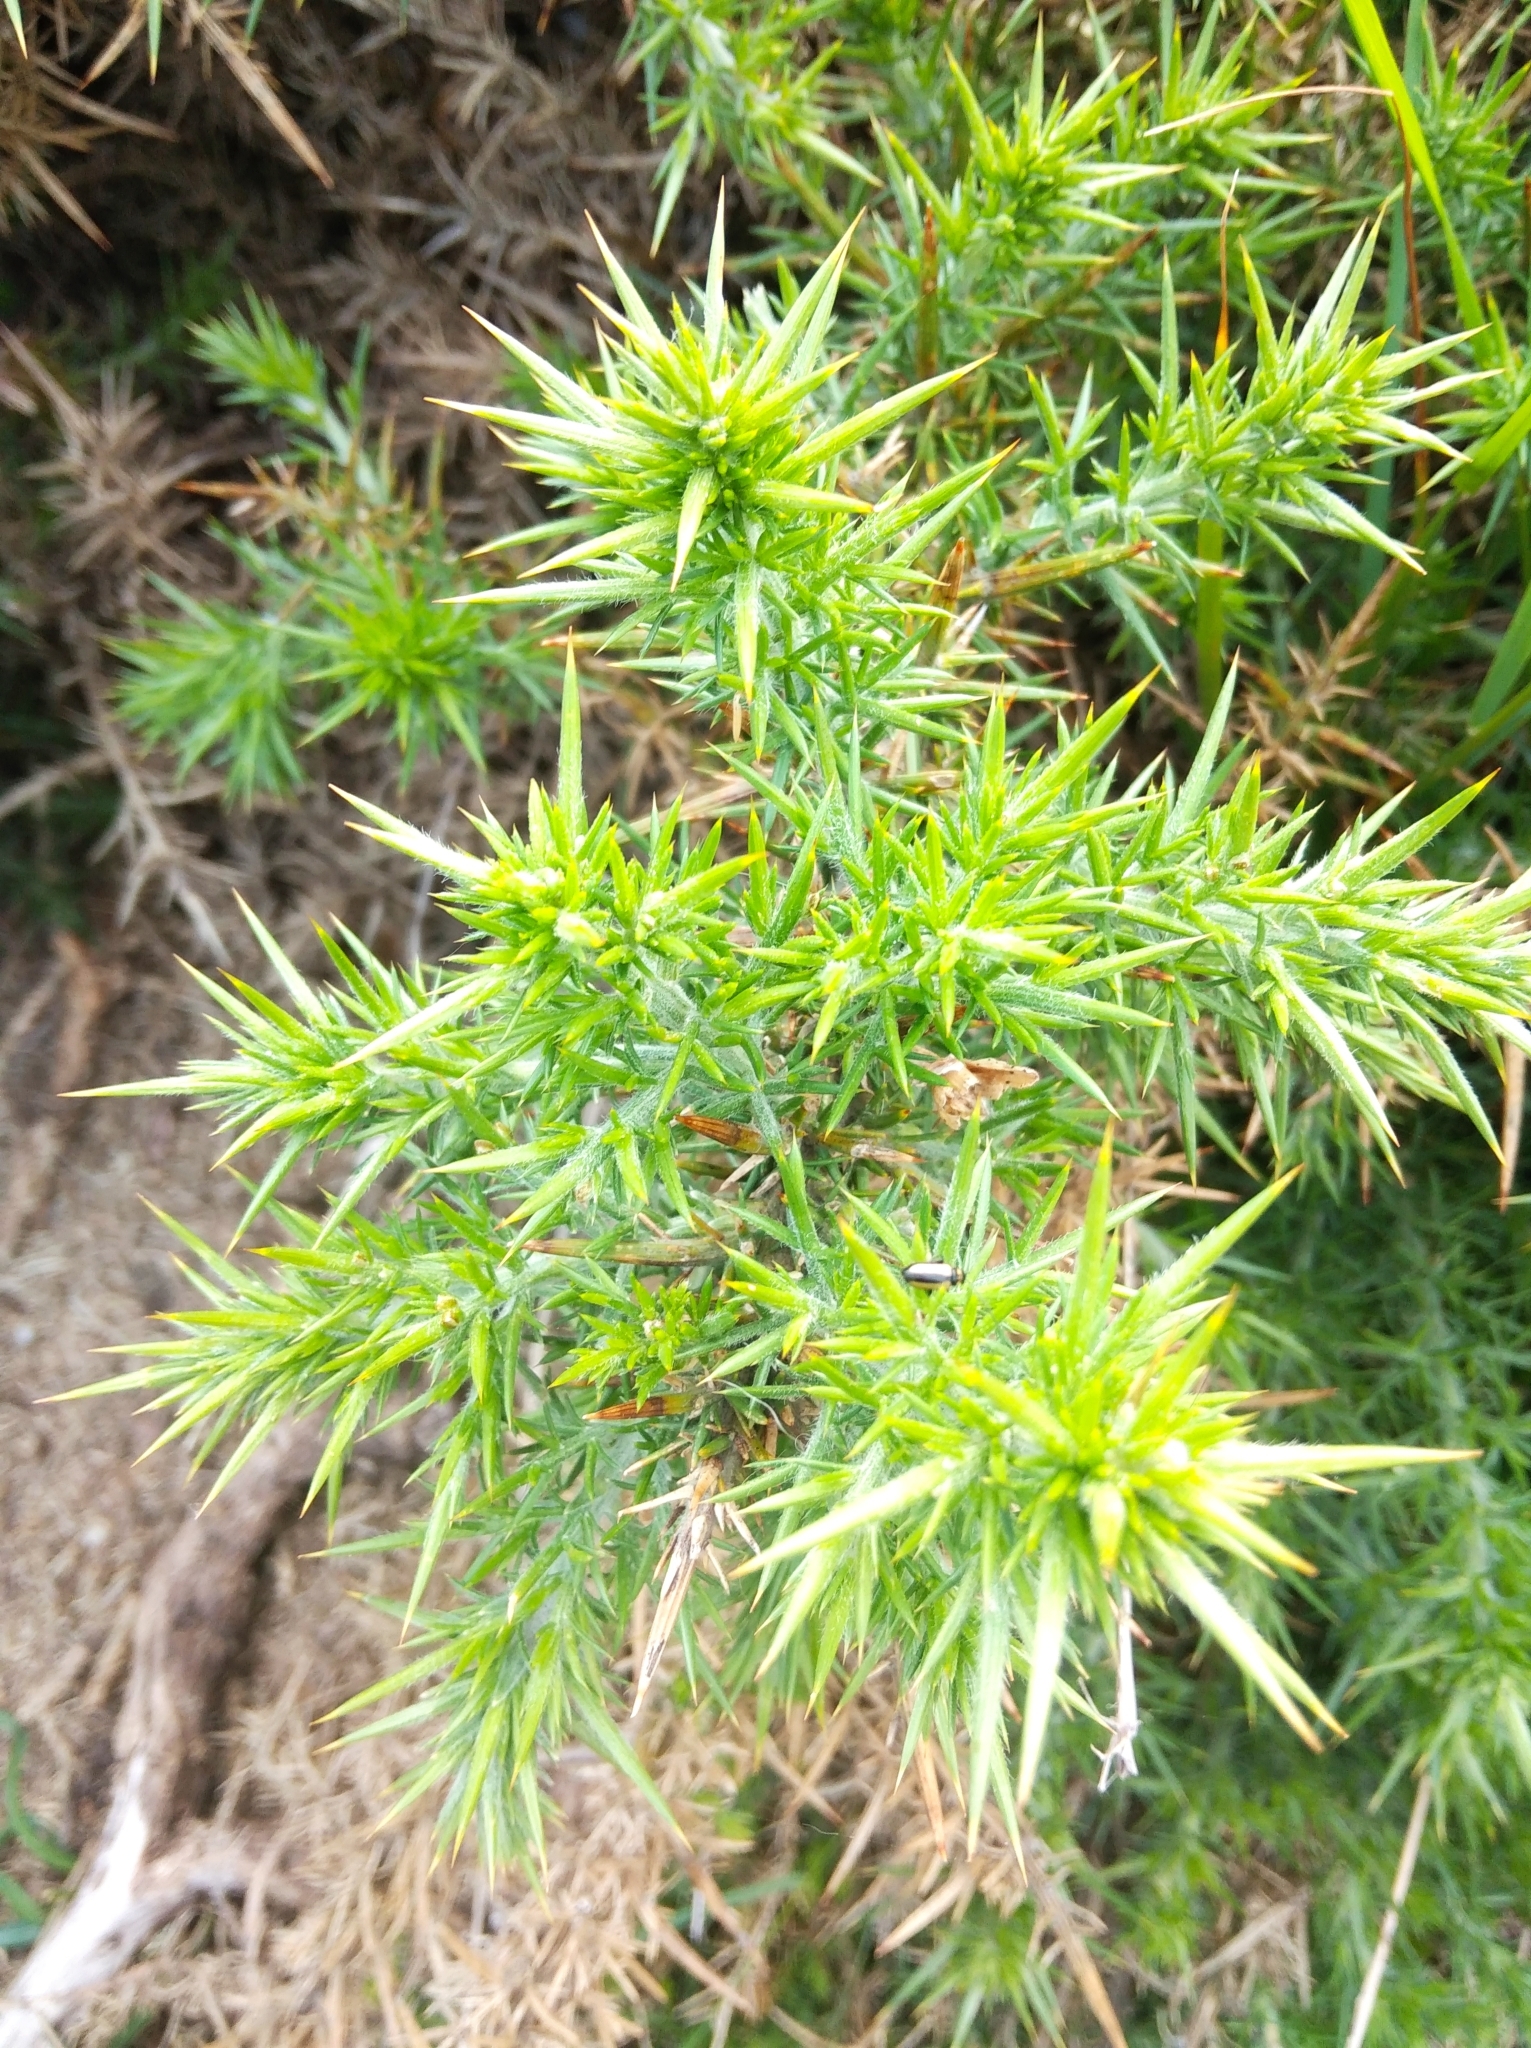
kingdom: Plantae
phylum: Tracheophyta
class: Magnoliopsida
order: Fabales
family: Fabaceae
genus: Ulex
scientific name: Ulex europaeus
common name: Common gorse
